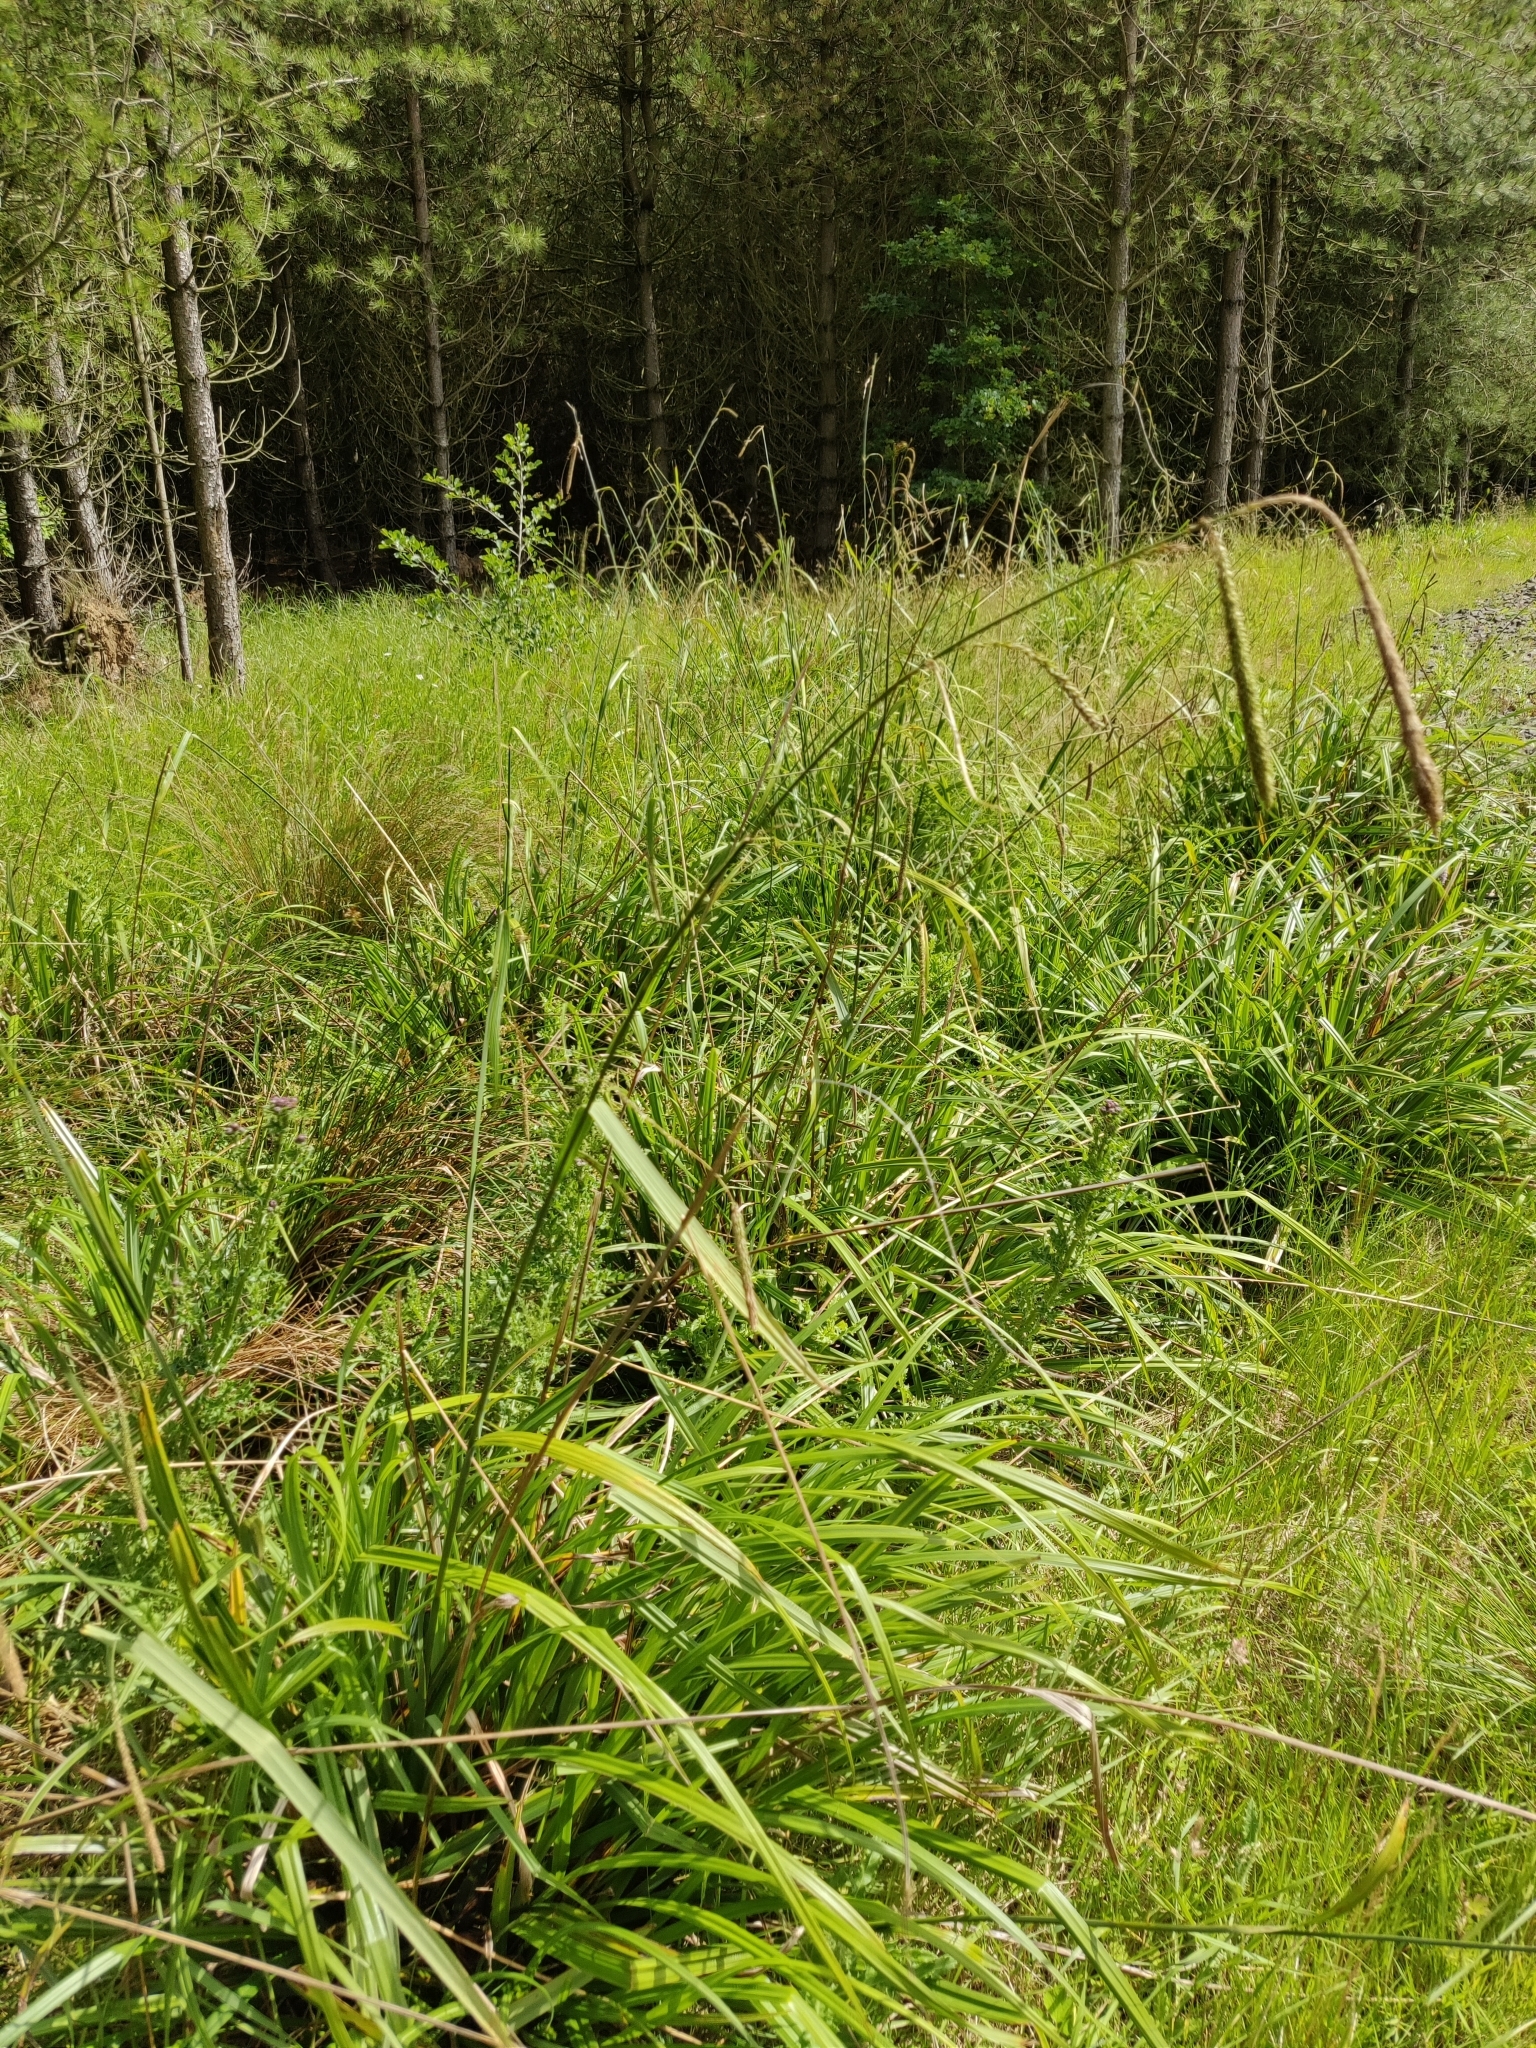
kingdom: Plantae
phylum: Tracheophyta
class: Liliopsida
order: Poales
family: Cyperaceae
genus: Carex
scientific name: Carex pendula
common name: Pendulous sedge
